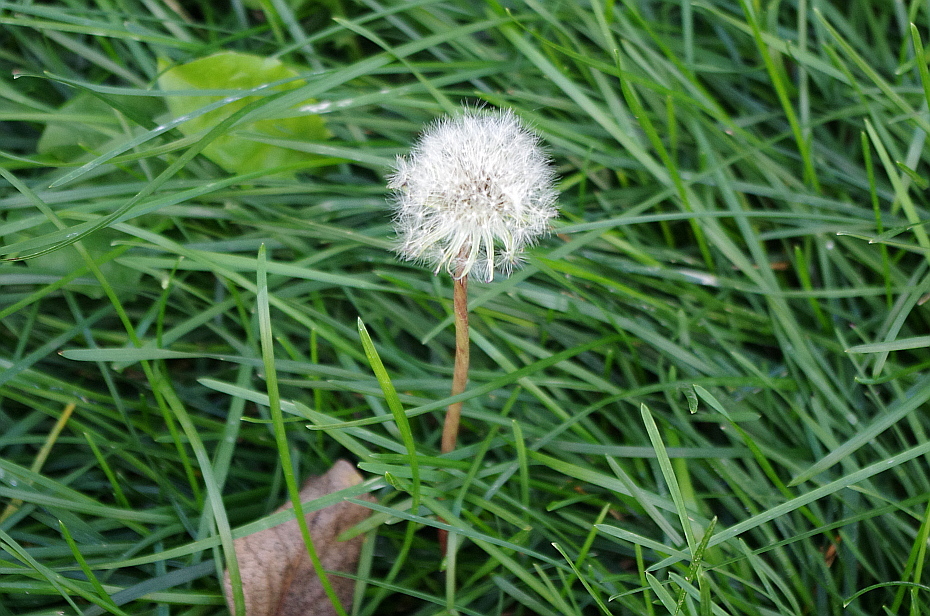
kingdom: Plantae
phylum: Tracheophyta
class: Magnoliopsida
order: Asterales
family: Asteraceae
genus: Taraxacum
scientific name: Taraxacum officinale
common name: Common dandelion
